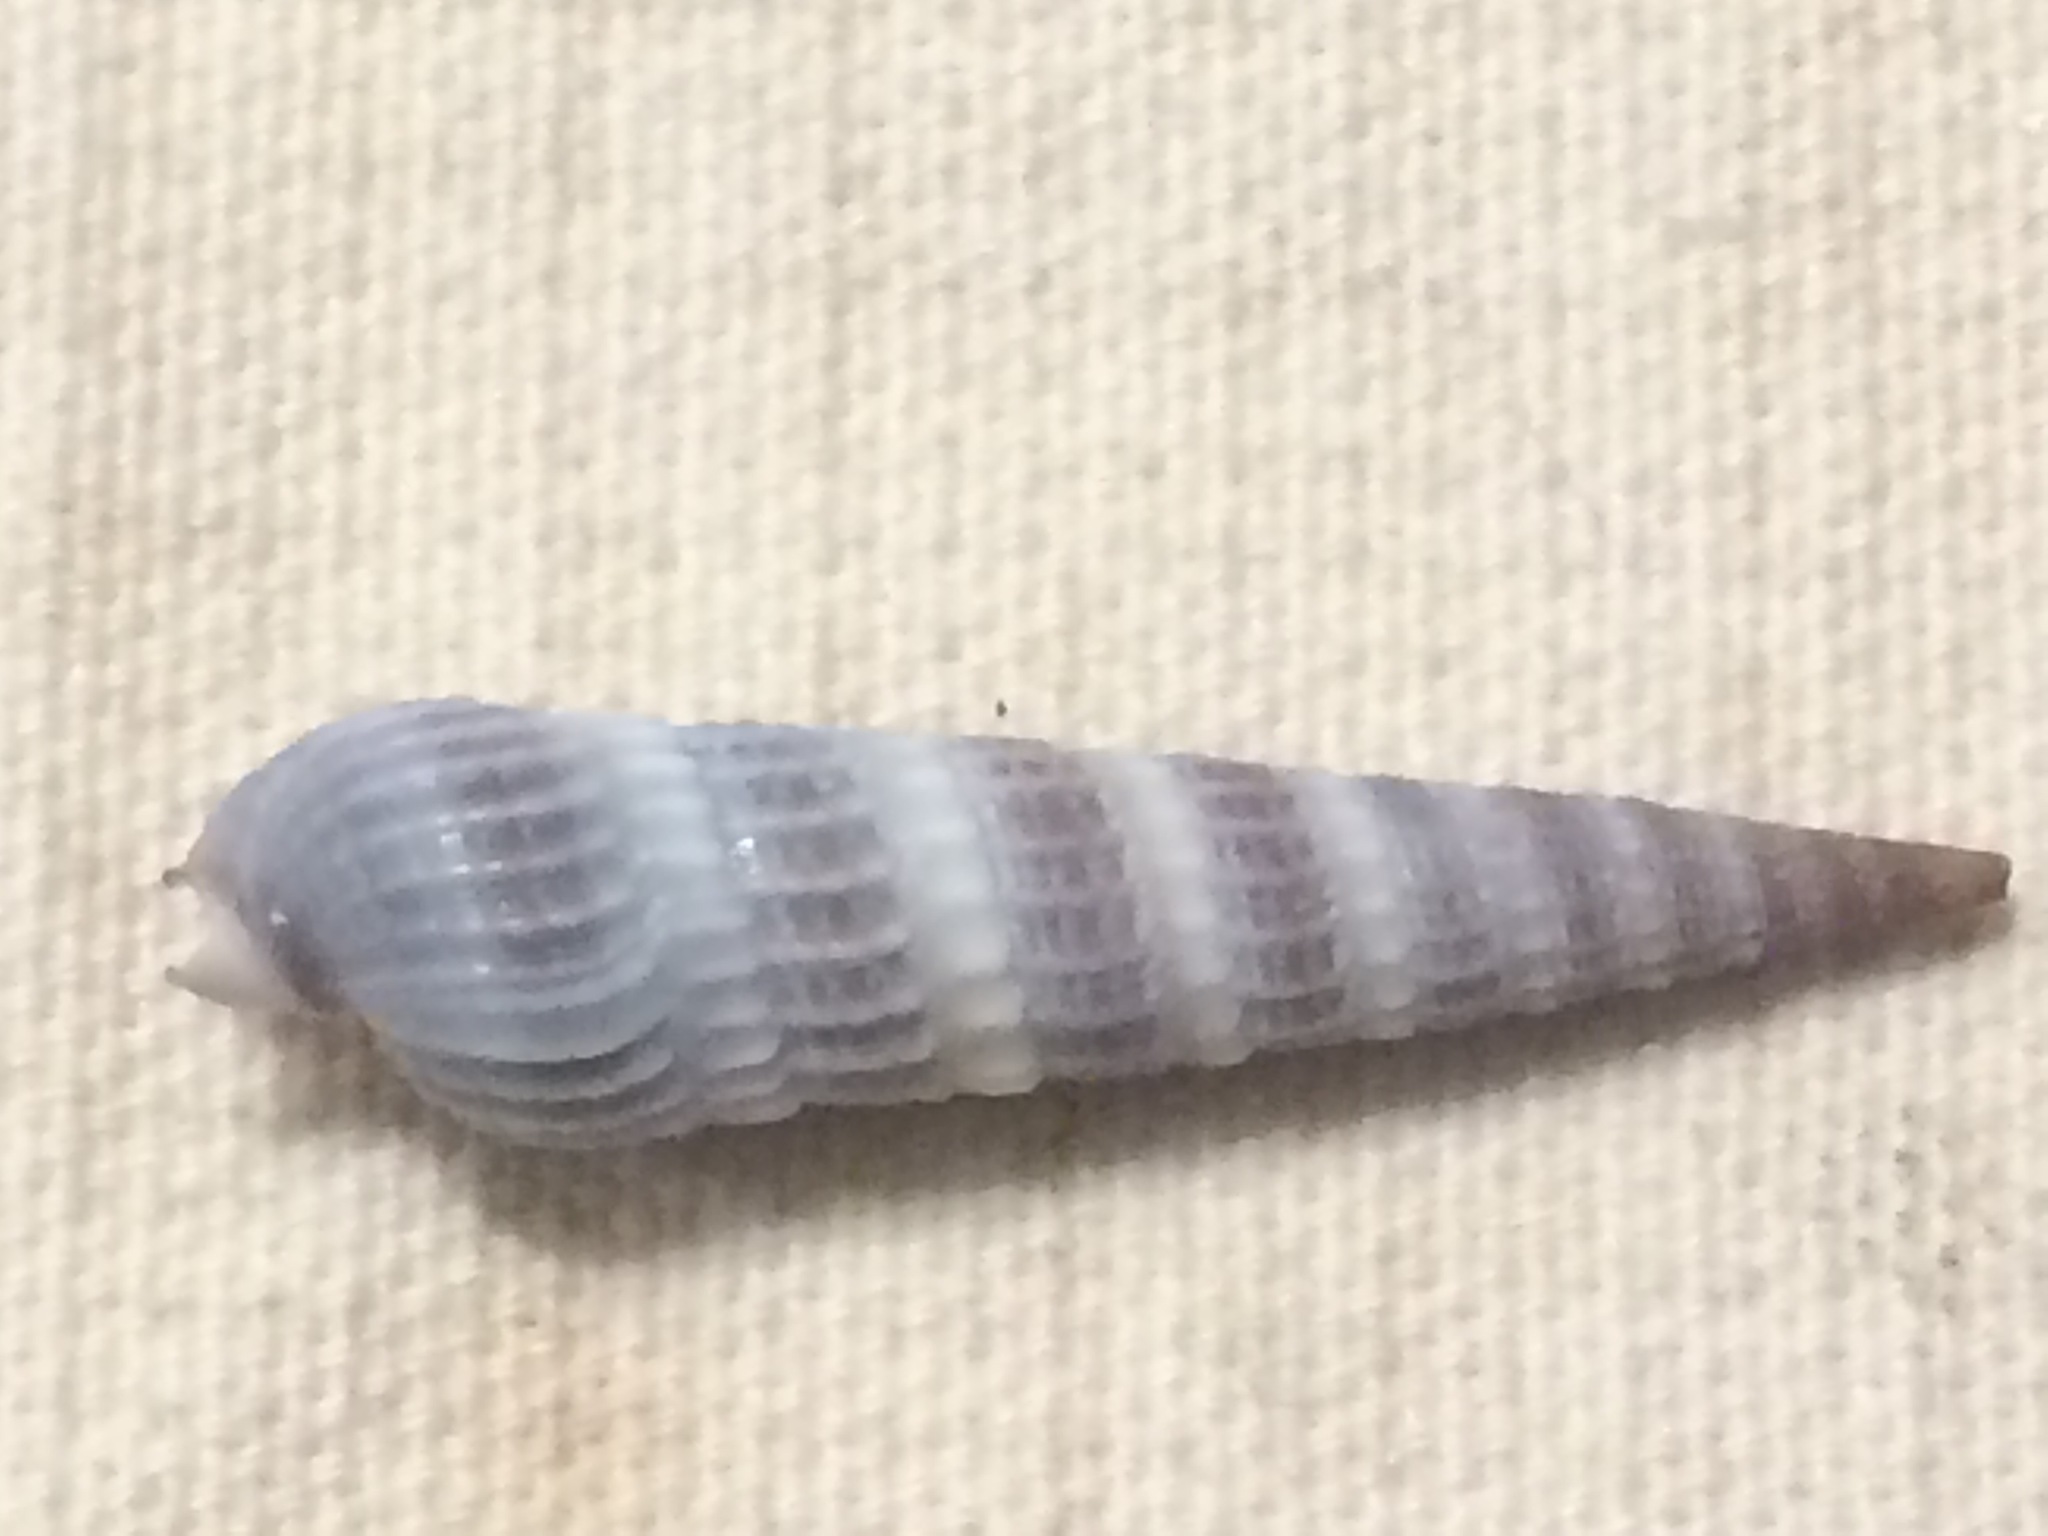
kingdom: Animalia
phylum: Mollusca
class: Gastropoda
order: Neogastropoda
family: Terebridae
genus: Neoterebra
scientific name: Neoterebra dislocata
